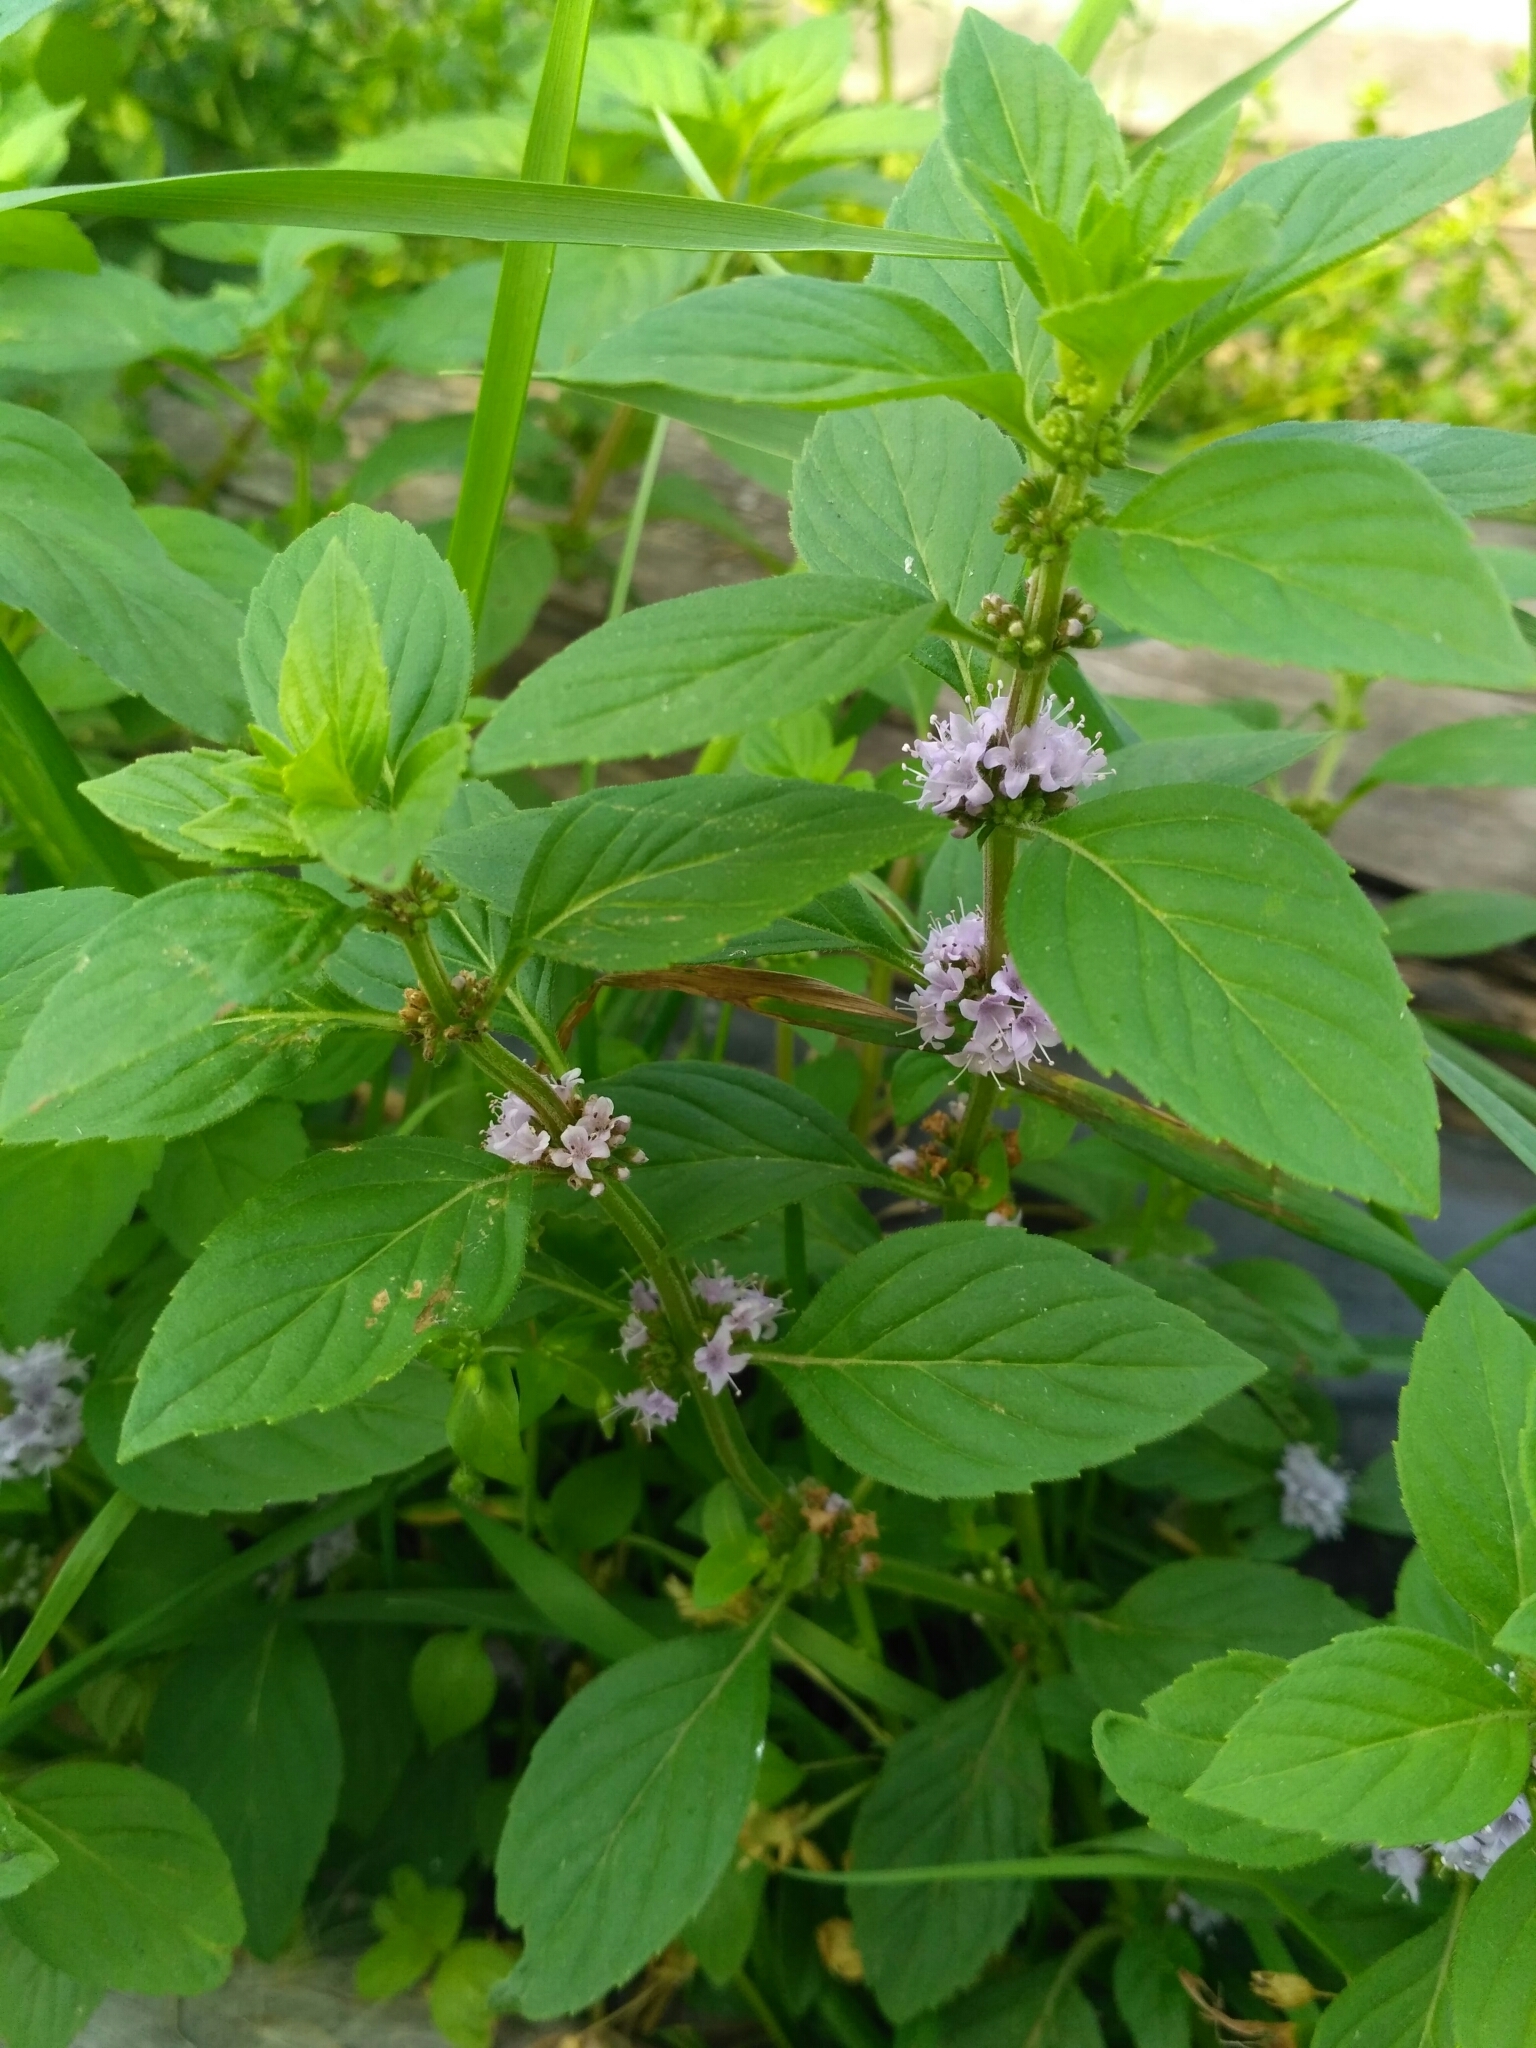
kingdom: Plantae
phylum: Tracheophyta
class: Magnoliopsida
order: Lamiales
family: Lamiaceae
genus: Mentha
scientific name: Mentha arvensis
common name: Corn mint
